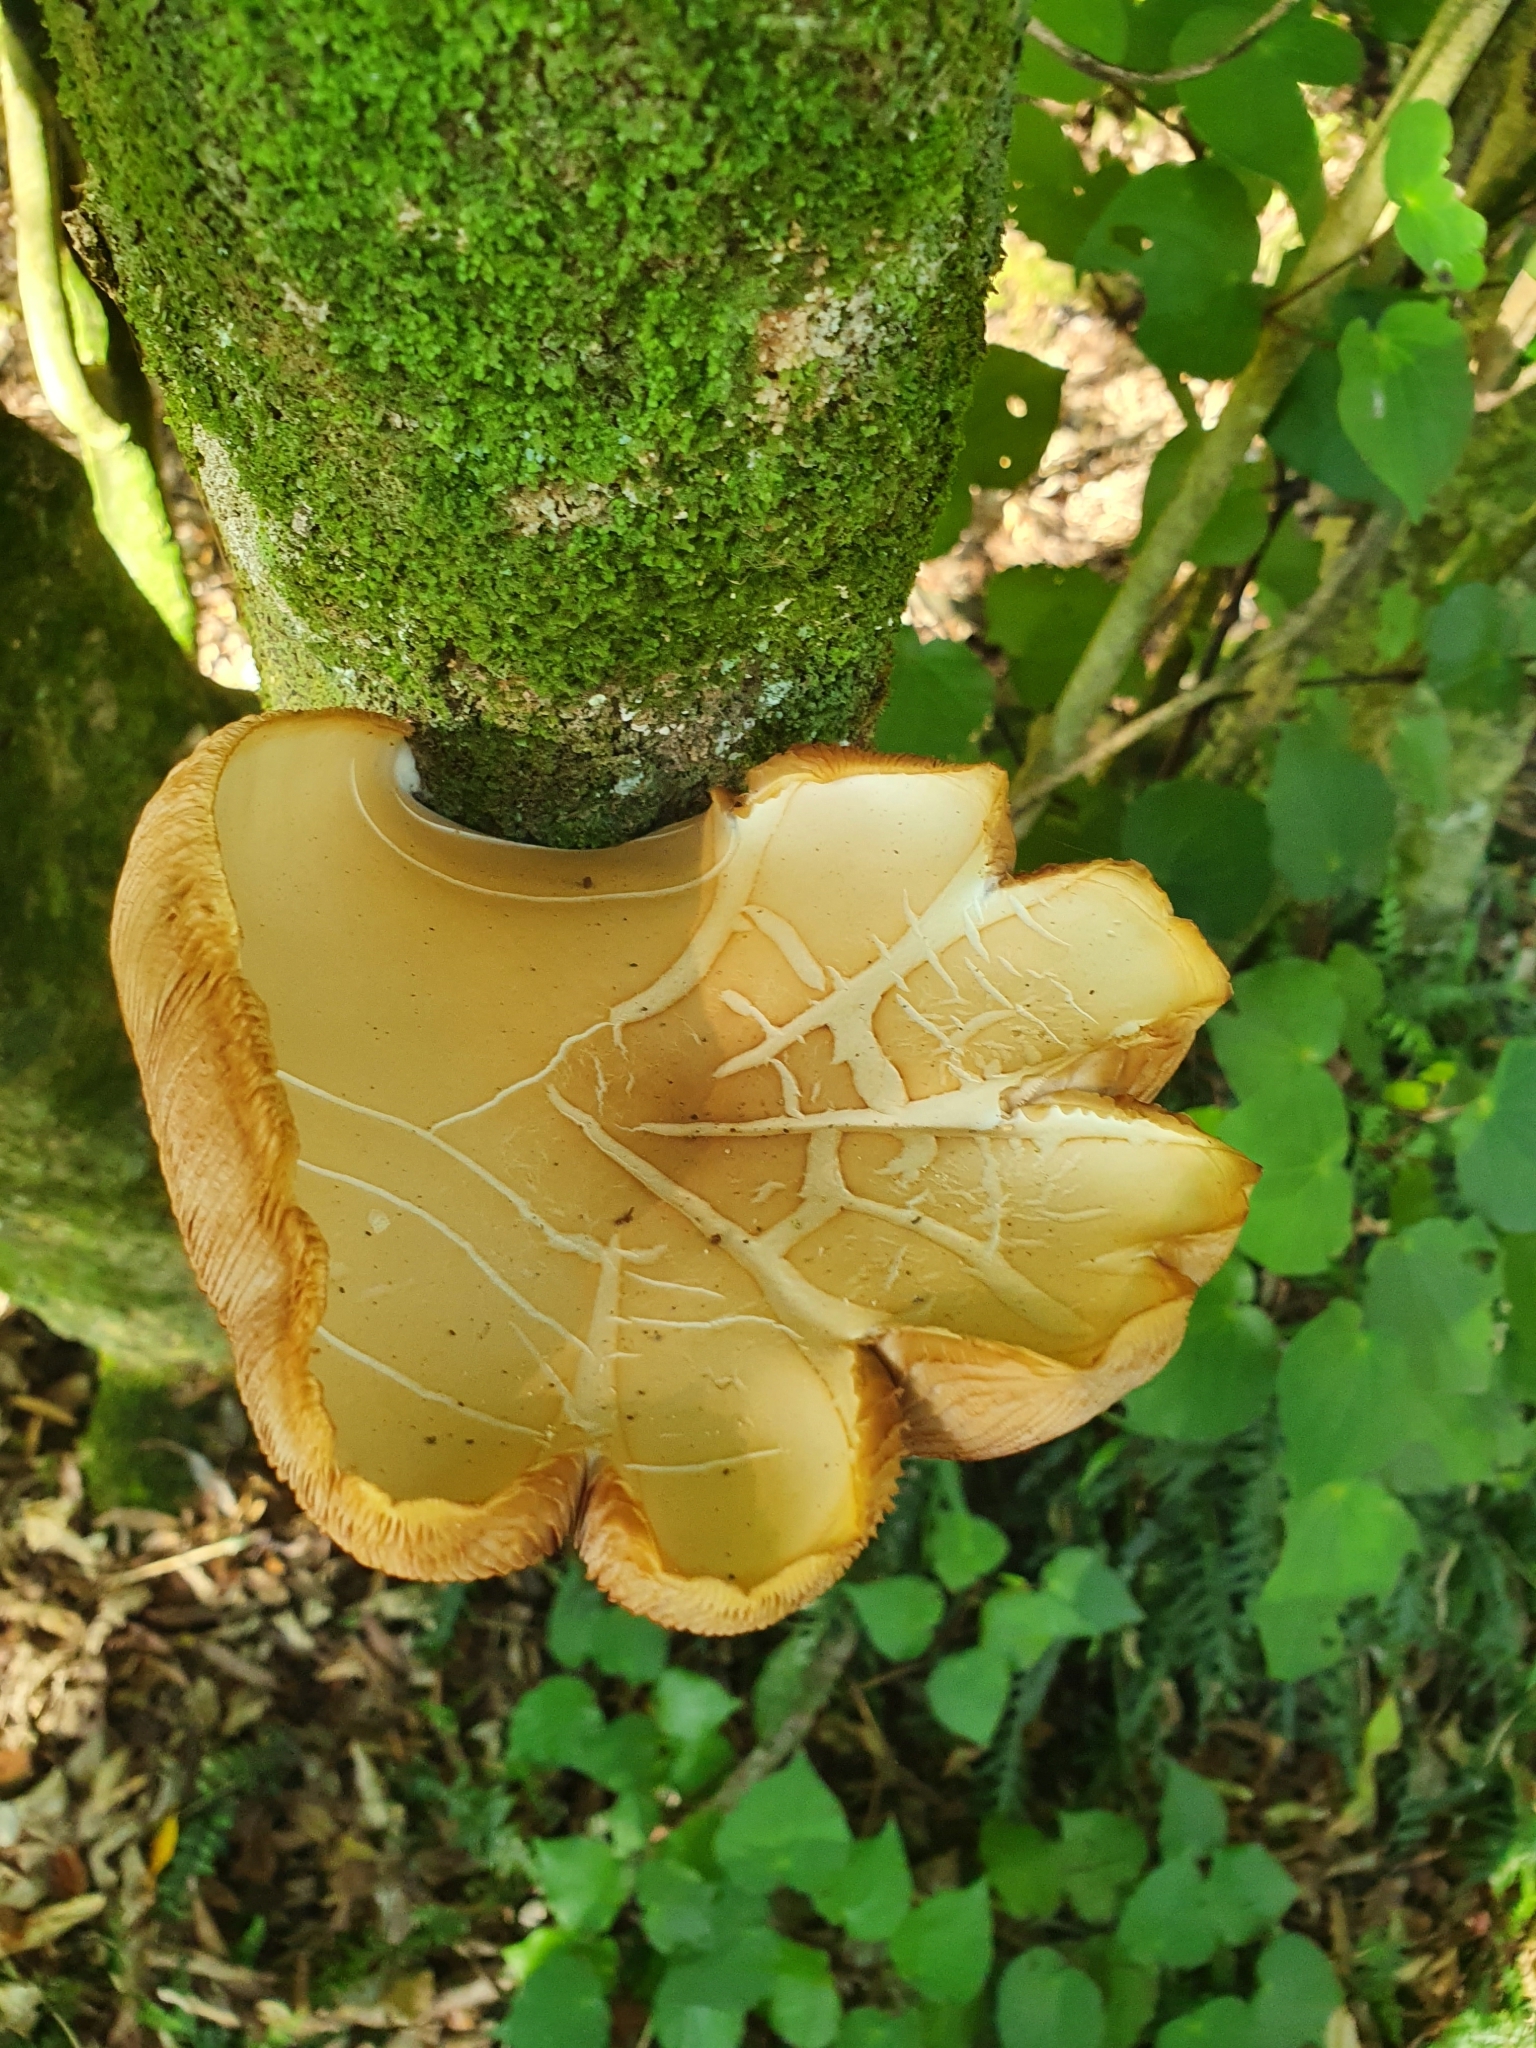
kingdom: Fungi
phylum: Basidiomycota
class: Agaricomycetes
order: Agaricales
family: Tubariaceae
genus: Cyclocybe
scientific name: Cyclocybe parasitica
